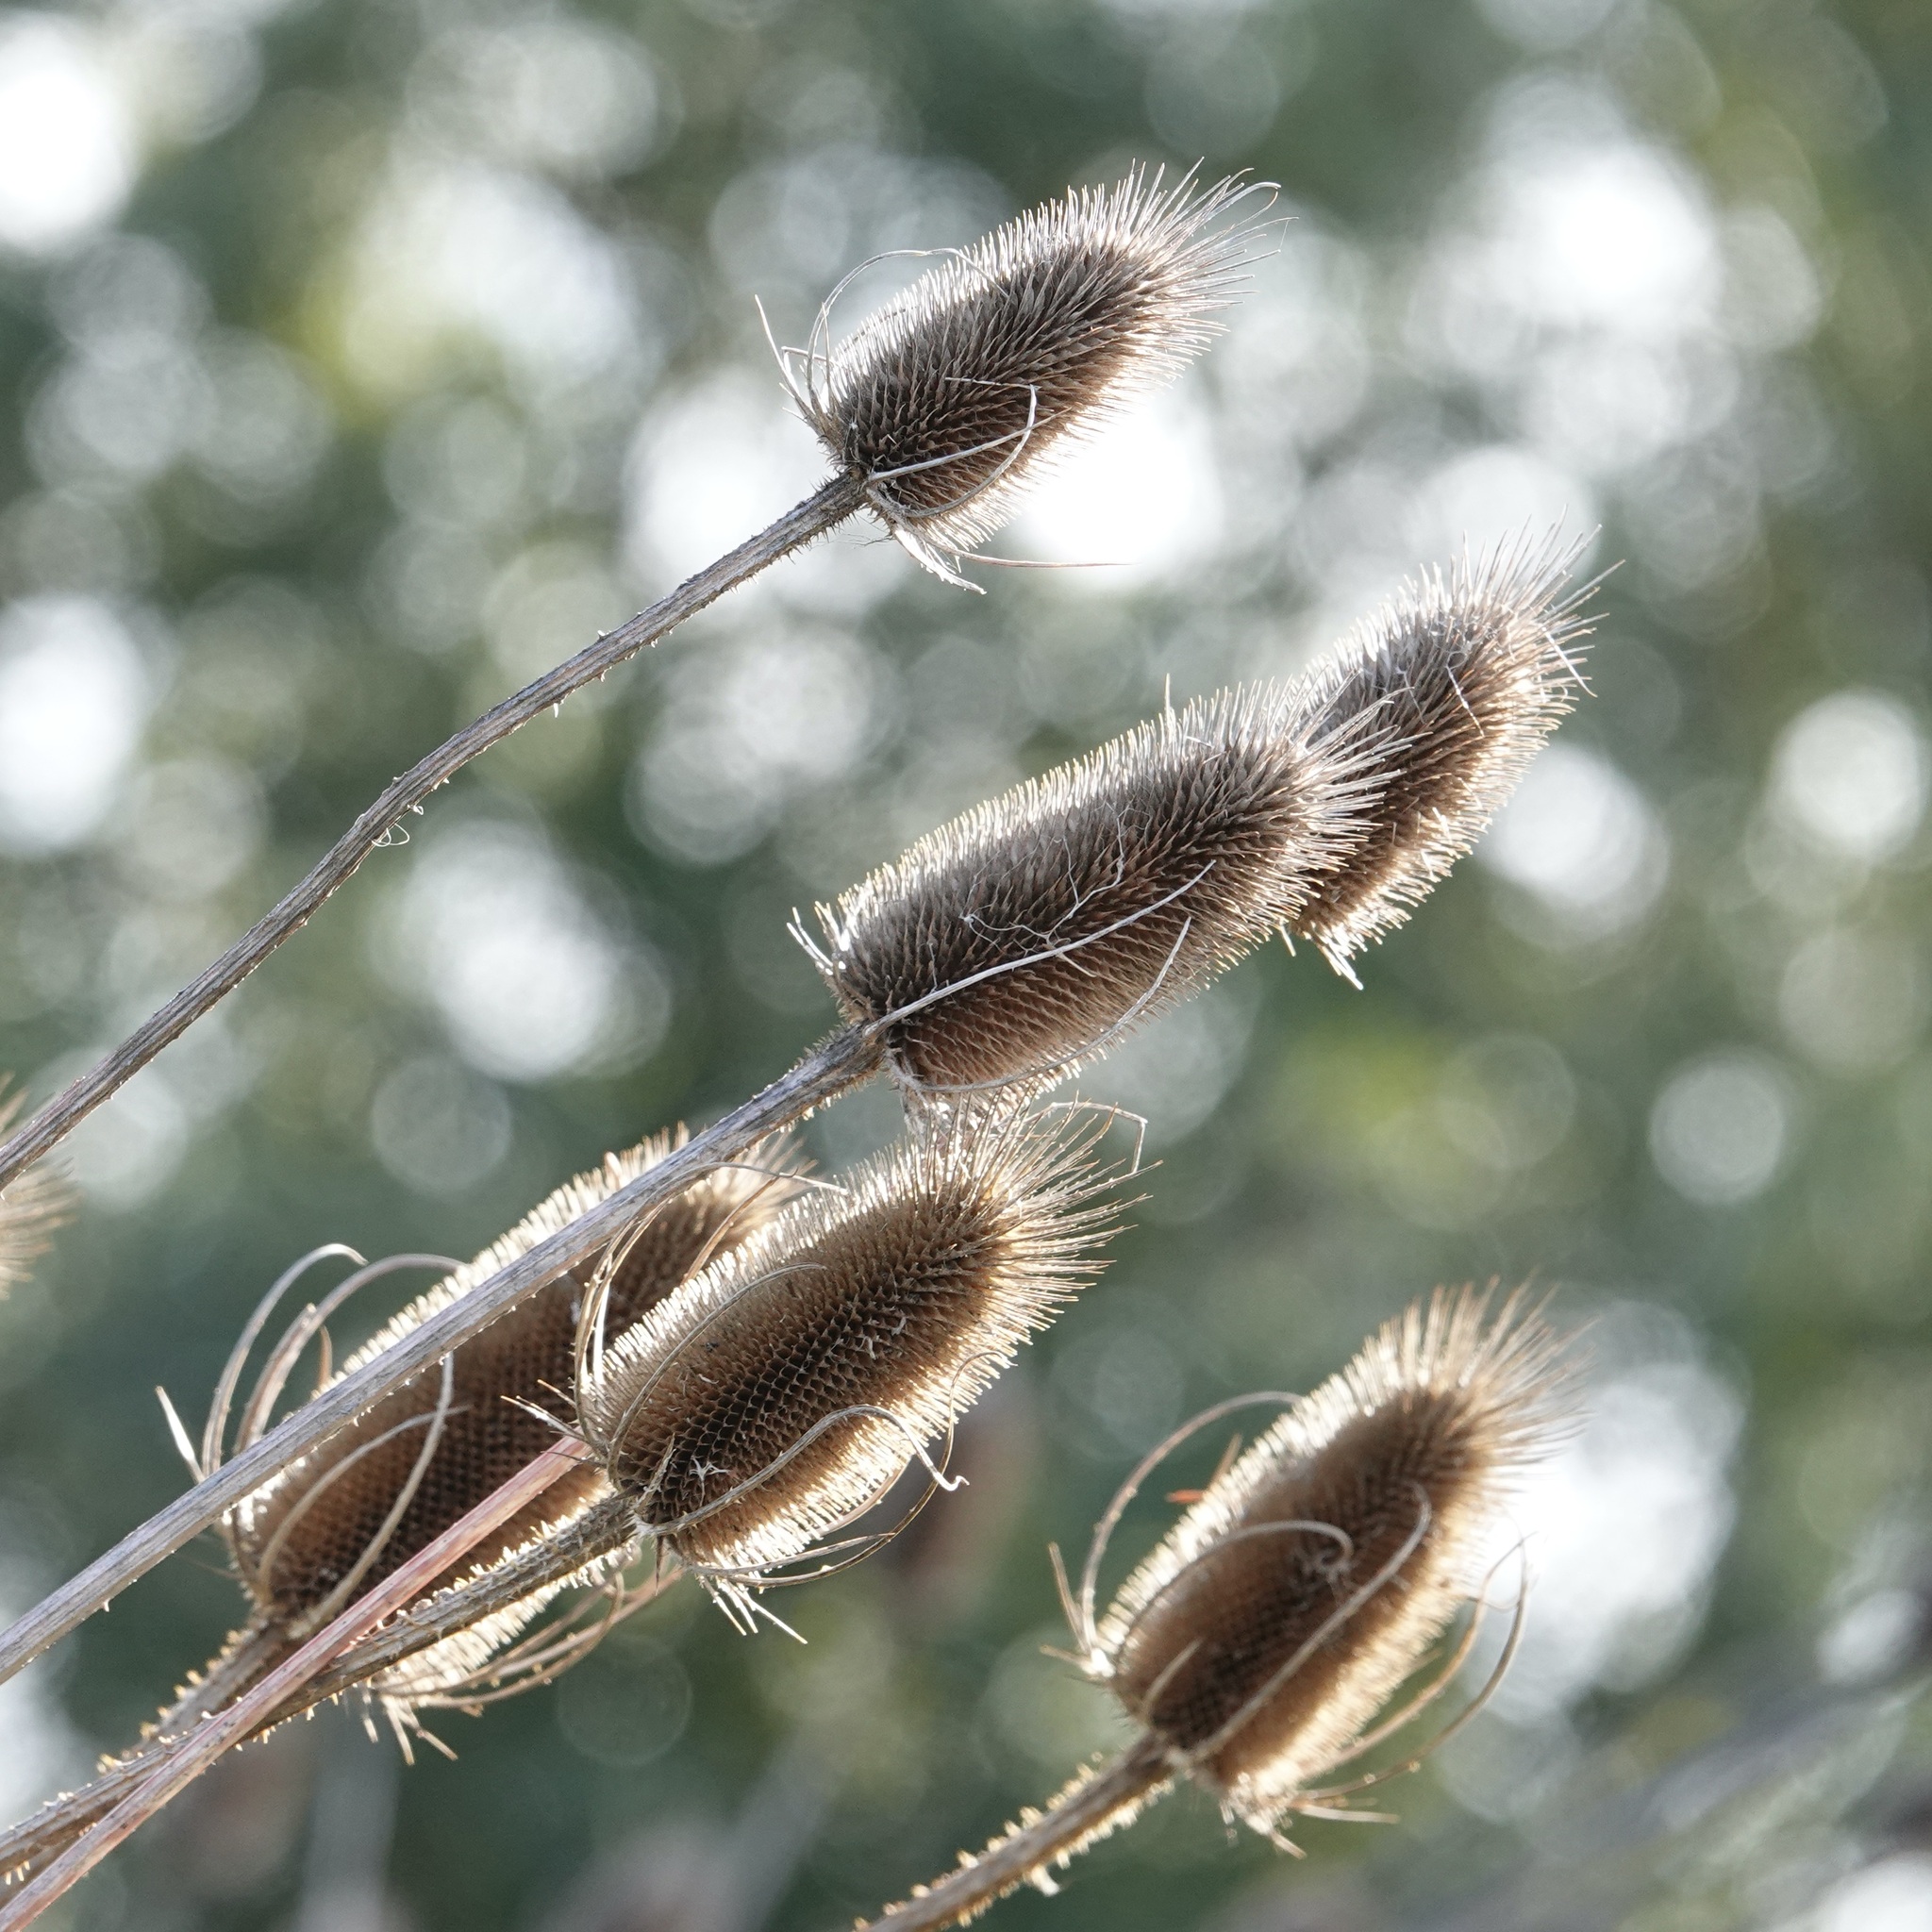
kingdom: Plantae
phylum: Tracheophyta
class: Magnoliopsida
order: Dipsacales
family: Caprifoliaceae
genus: Dipsacus
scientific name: Dipsacus fullonum
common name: Teasel
